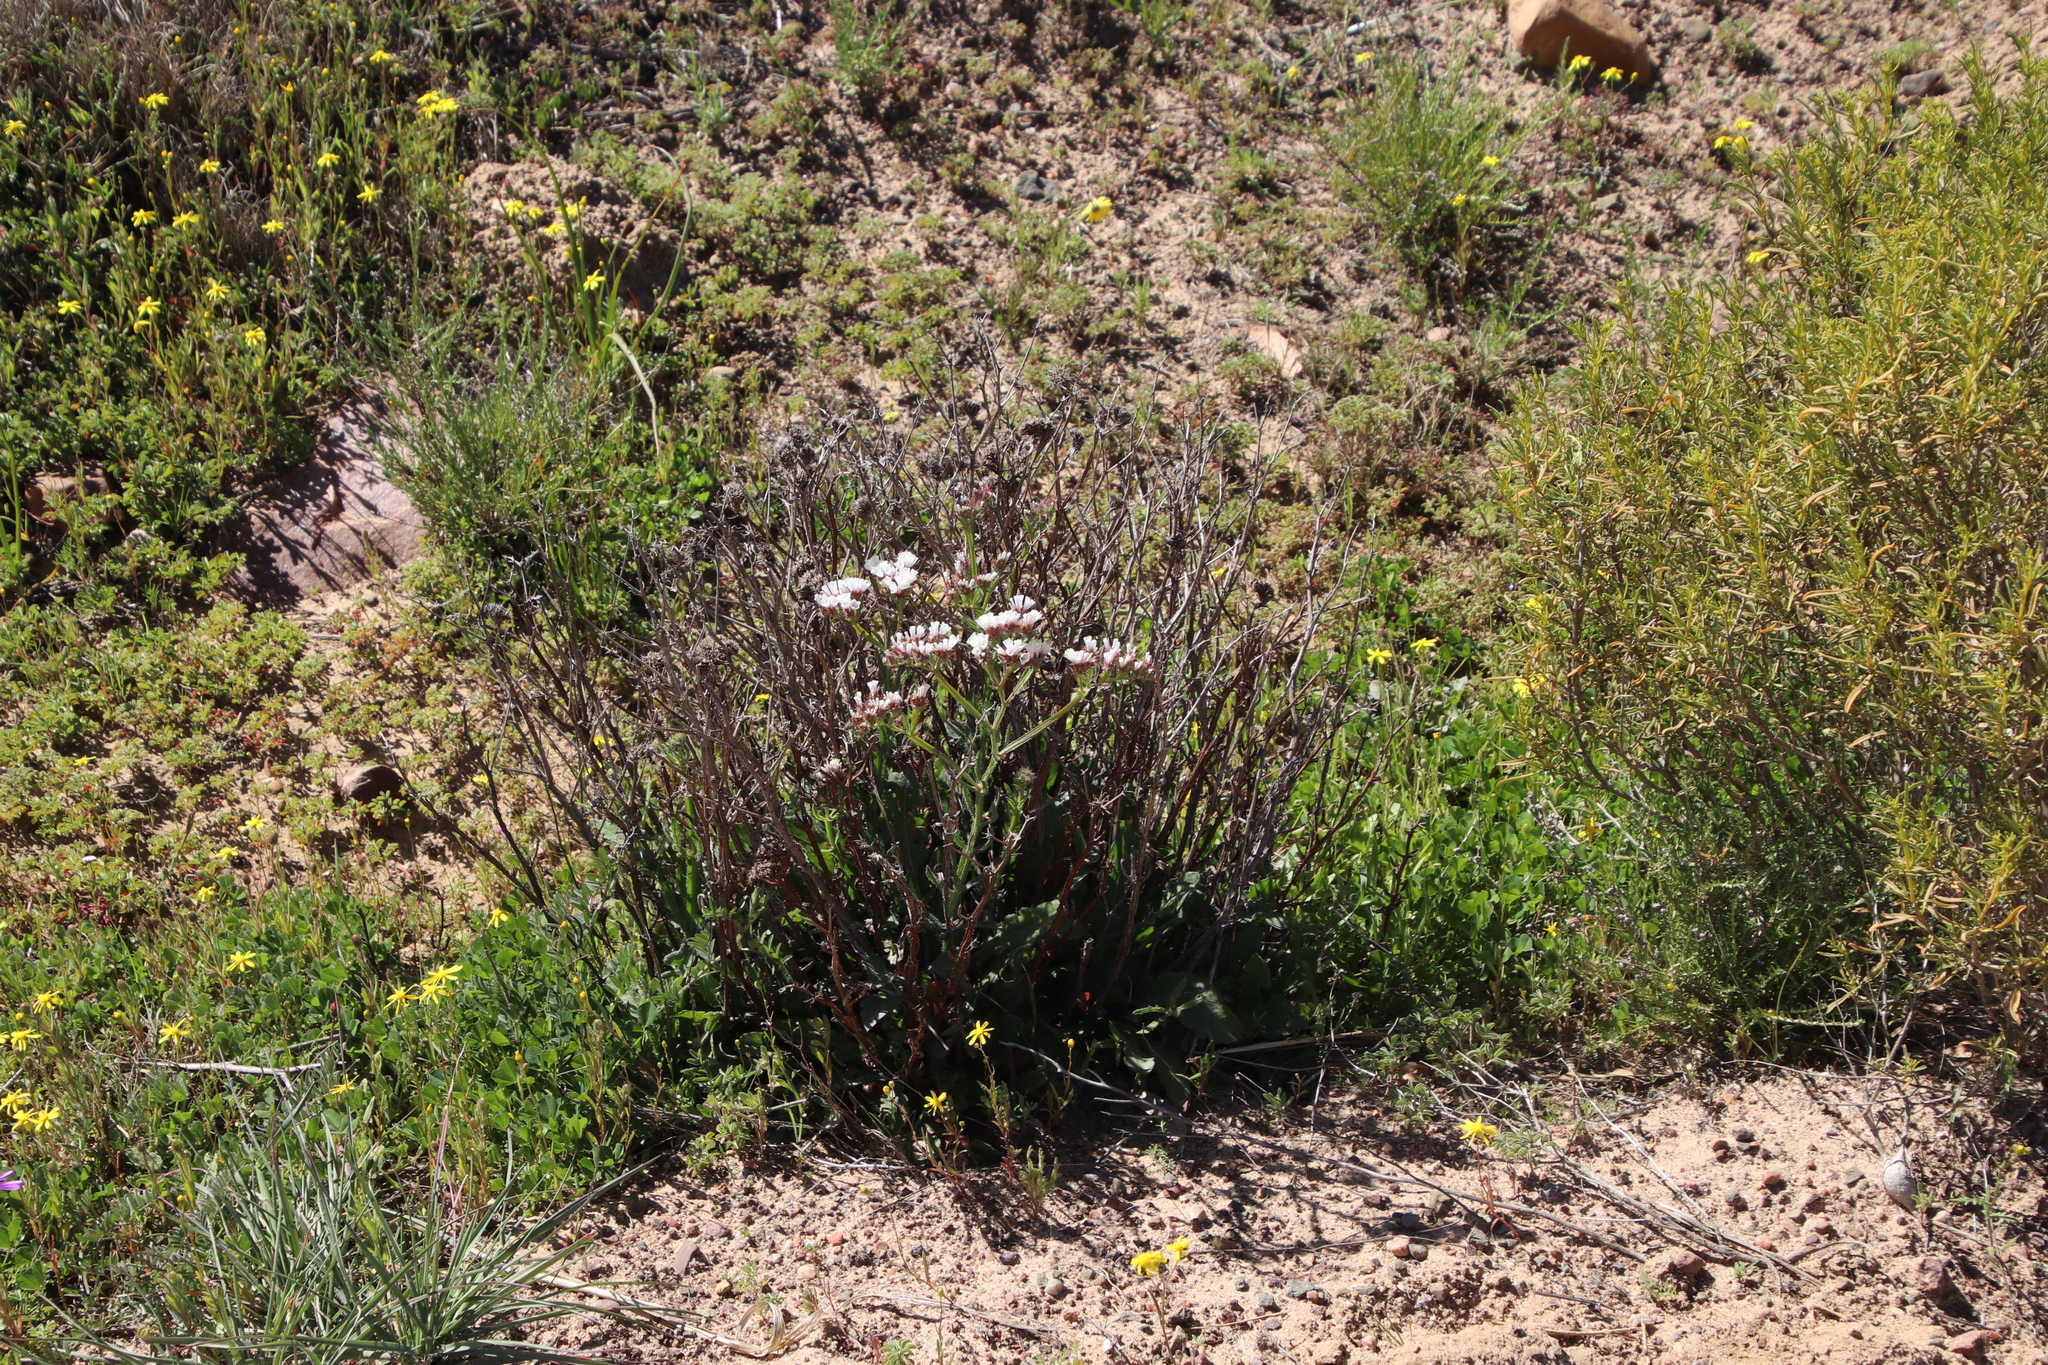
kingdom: Plantae
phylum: Tracheophyta
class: Magnoliopsida
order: Caryophyllales
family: Plumbaginaceae
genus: Limonium
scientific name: Limonium sinuatum
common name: Statice
